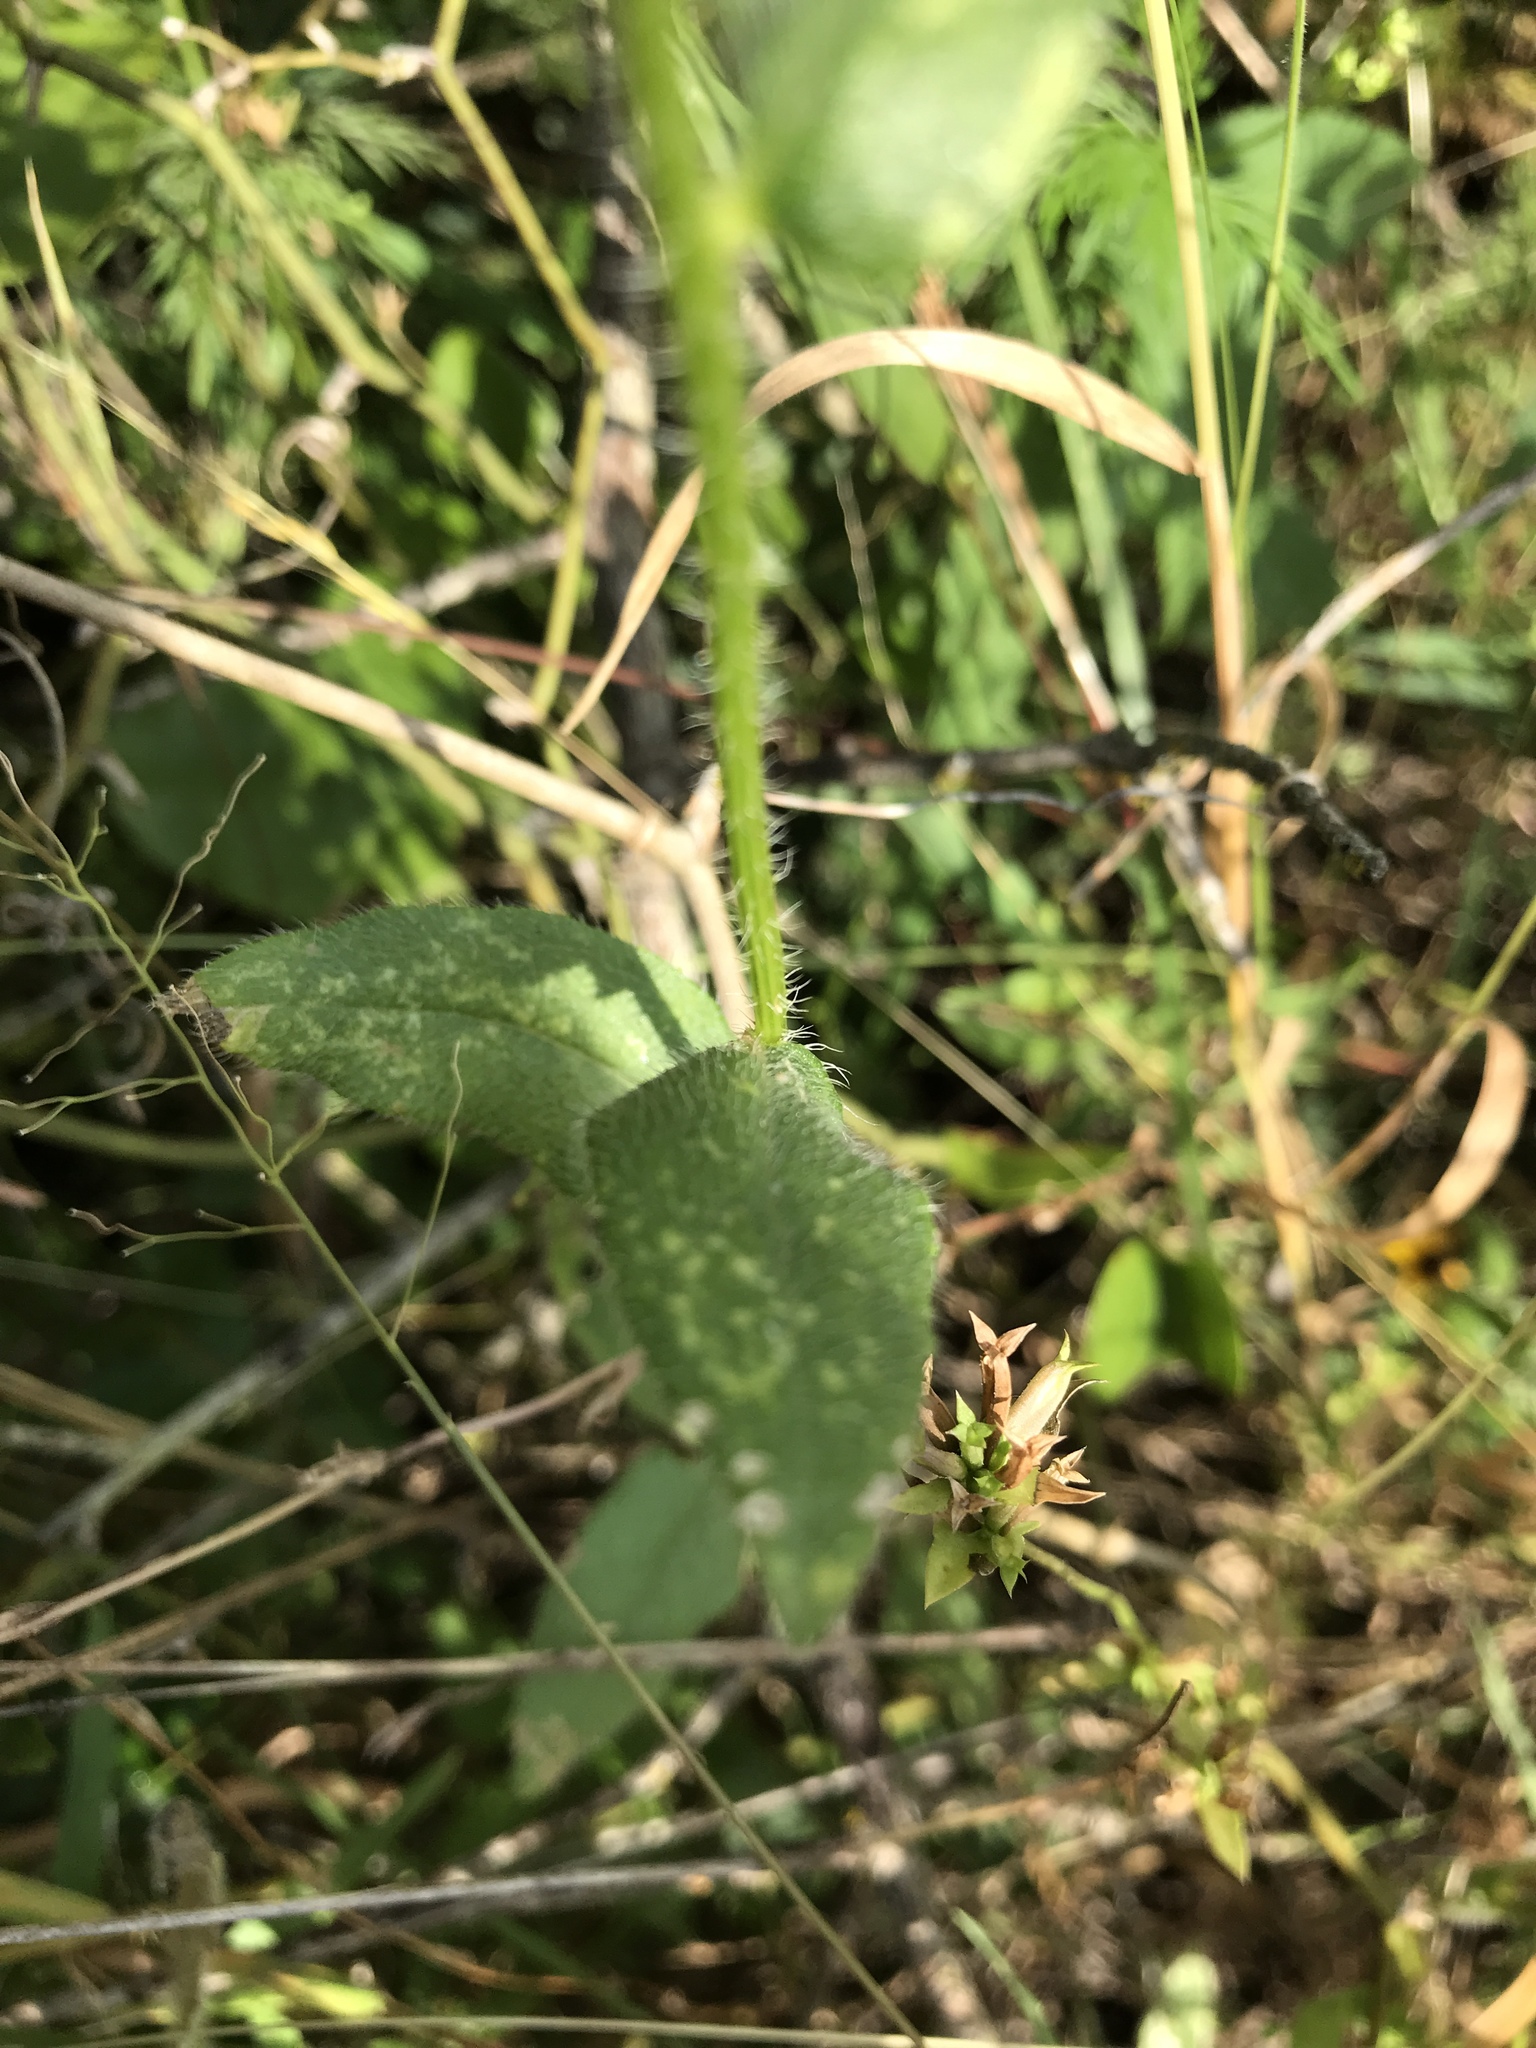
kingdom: Plantae
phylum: Tracheophyta
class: Magnoliopsida
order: Asterales
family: Asteraceae
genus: Rudbeckia
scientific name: Rudbeckia hirta
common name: Black-eyed-susan
